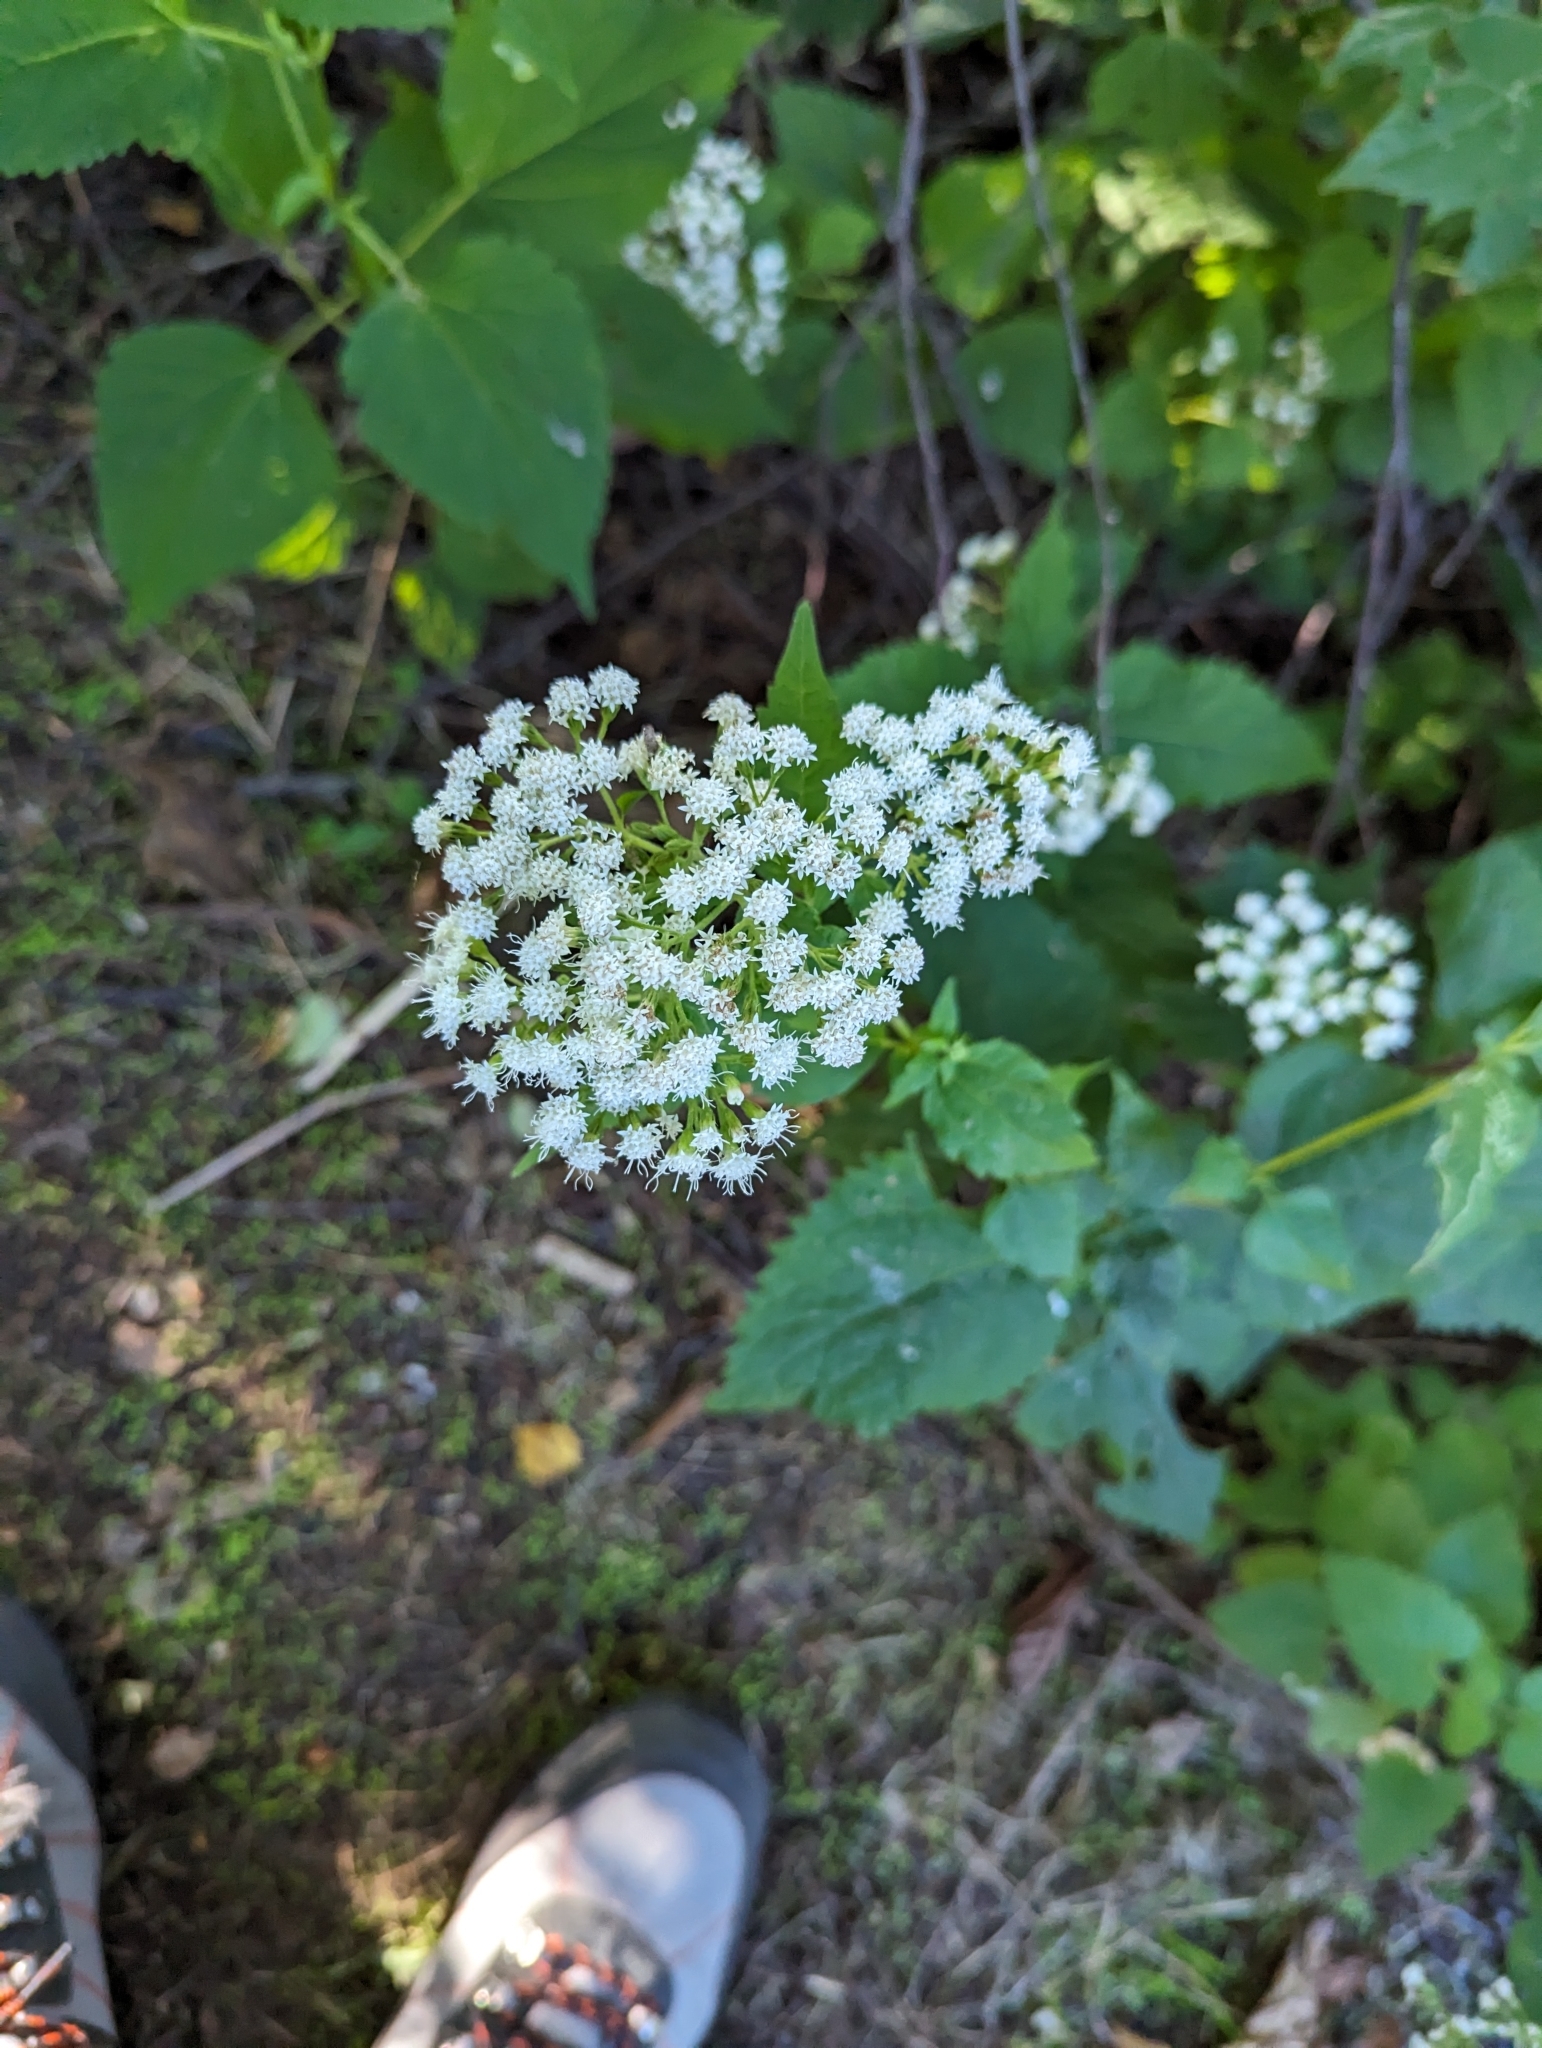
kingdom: Plantae
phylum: Tracheophyta
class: Magnoliopsida
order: Asterales
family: Asteraceae
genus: Ageratina
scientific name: Ageratina altissima
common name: White snakeroot
